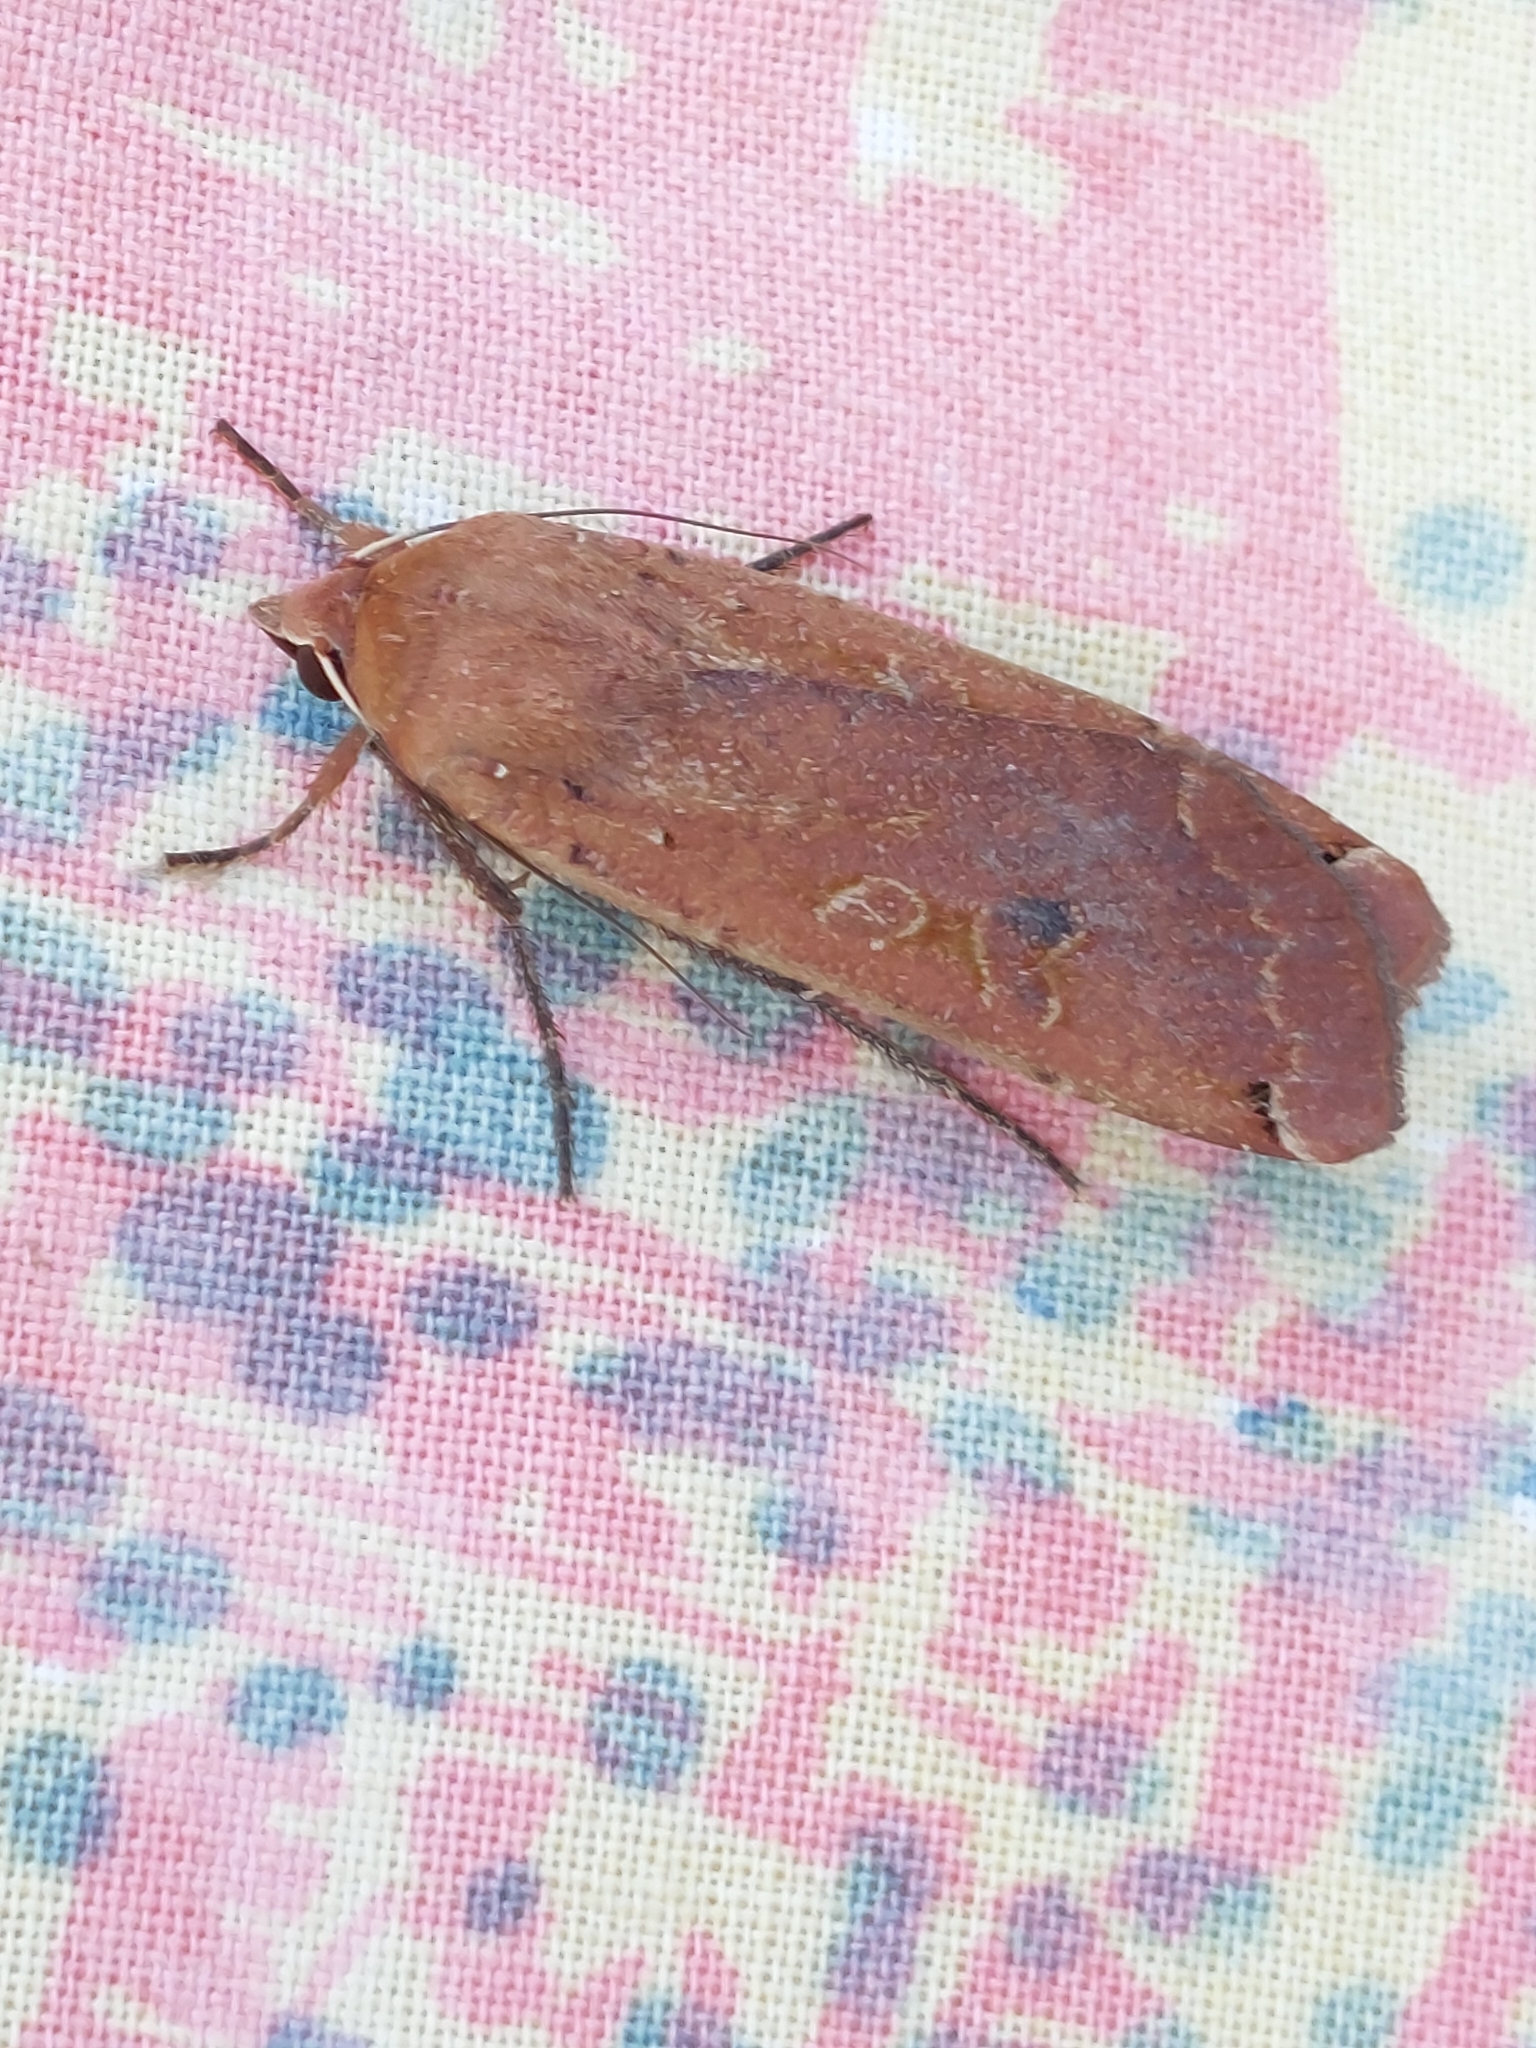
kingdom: Animalia
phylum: Arthropoda
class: Insecta
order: Lepidoptera
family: Noctuidae
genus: Noctua
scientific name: Noctua pronuba
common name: Large yellow underwing
